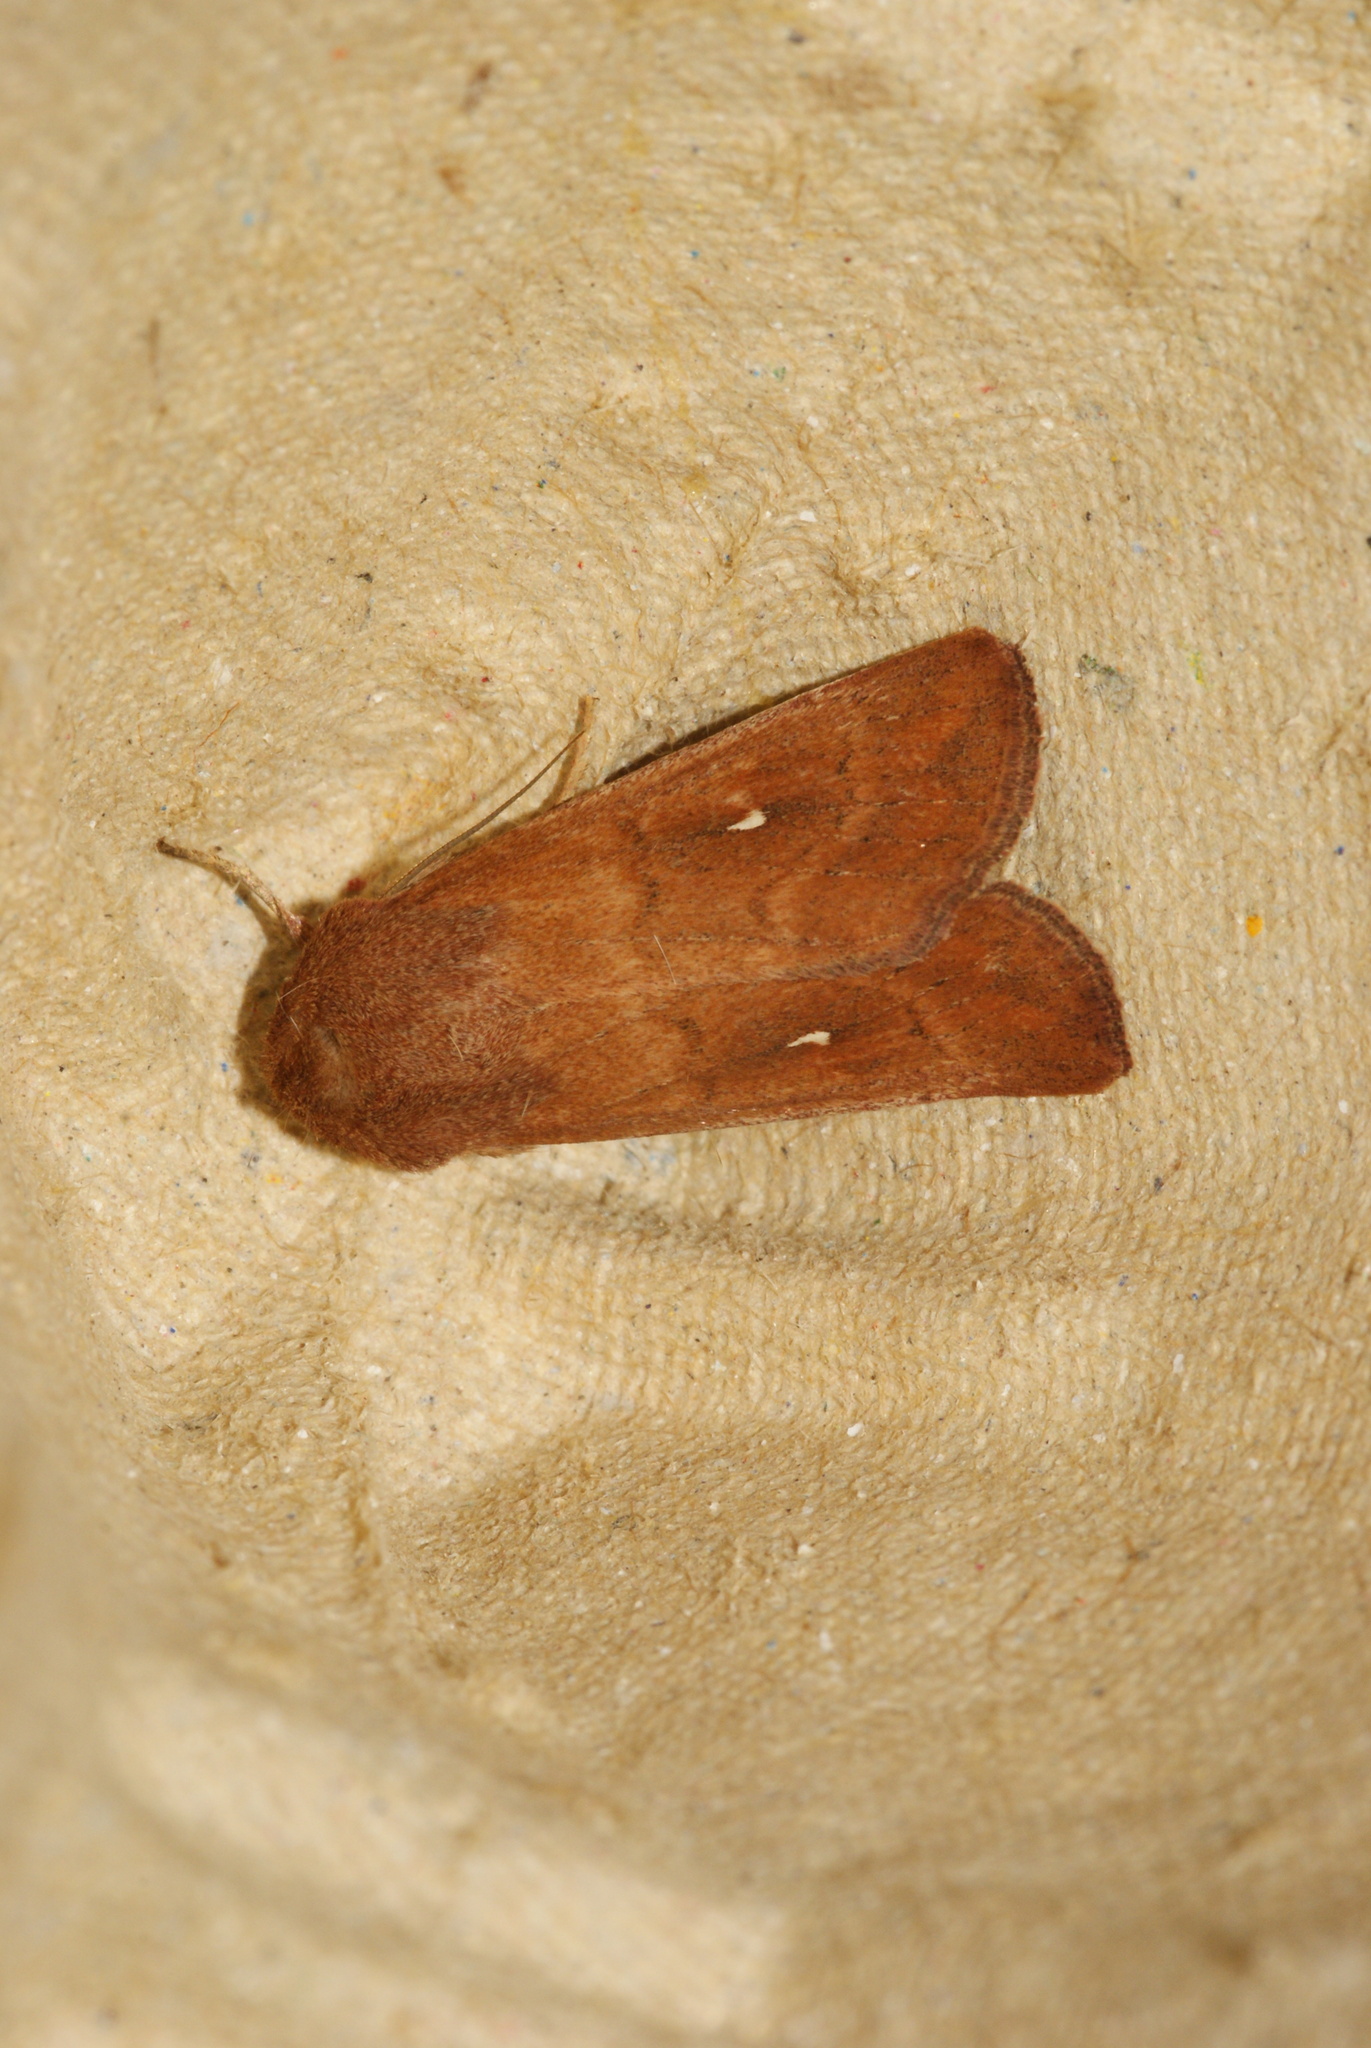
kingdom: Animalia
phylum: Arthropoda
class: Insecta
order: Lepidoptera
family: Noctuidae
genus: Mythimna
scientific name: Mythimna albipuncta
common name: White-point
